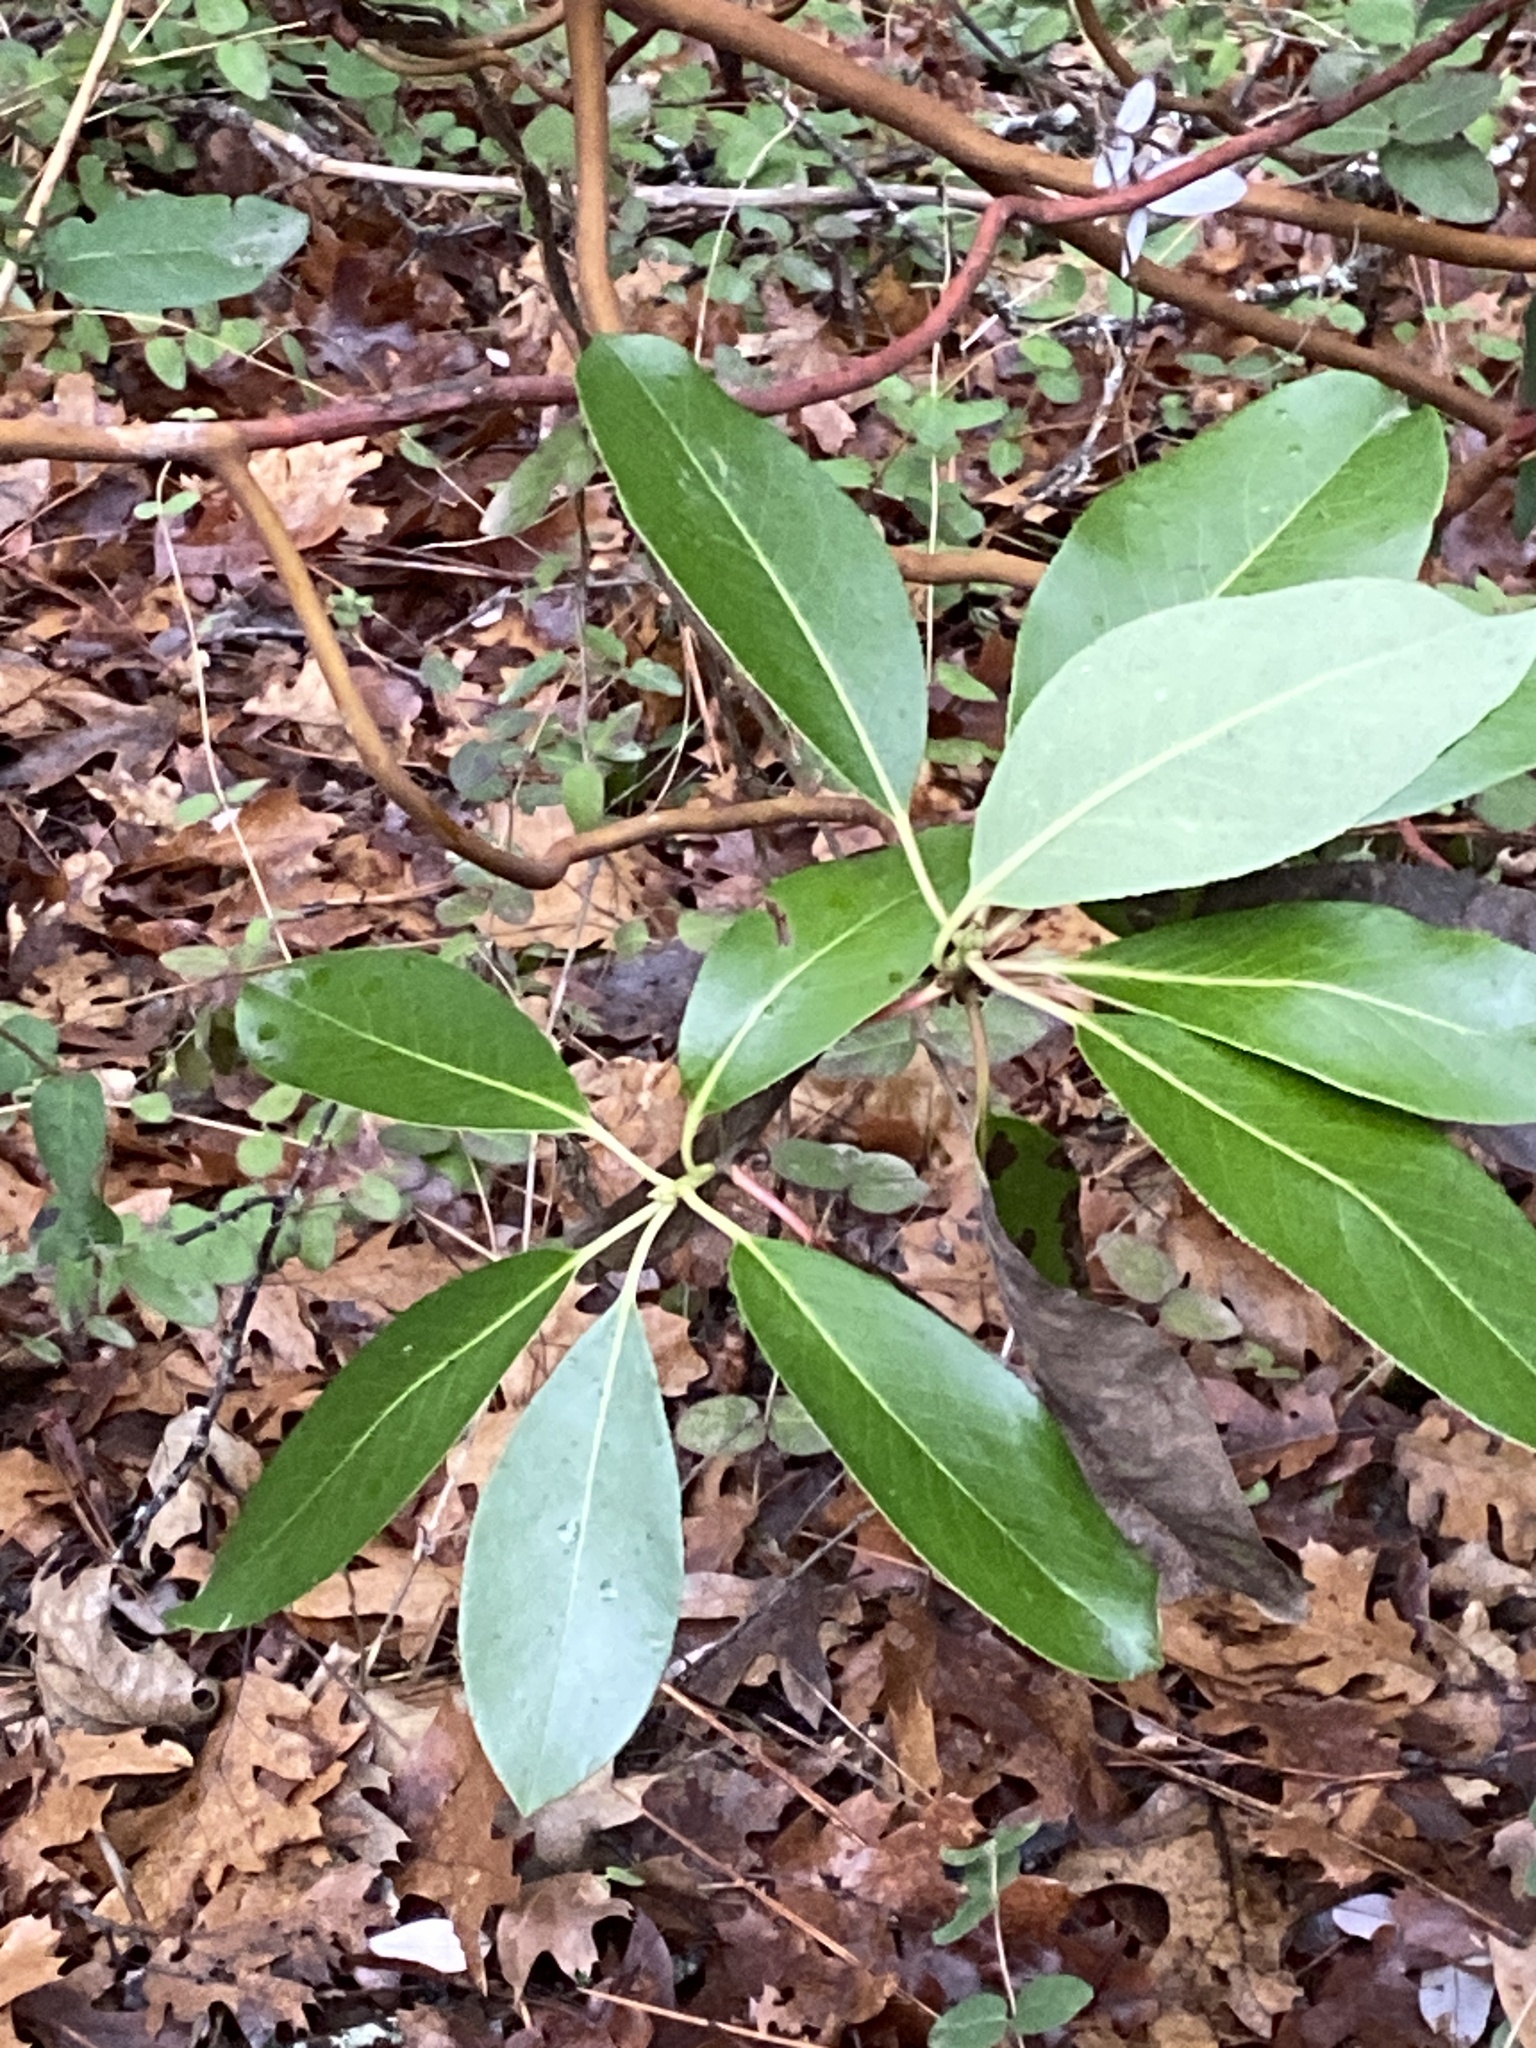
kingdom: Plantae
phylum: Tracheophyta
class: Magnoliopsida
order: Ericales
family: Ericaceae
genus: Arbutus
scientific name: Arbutus menziesii
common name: Pacific madrone
